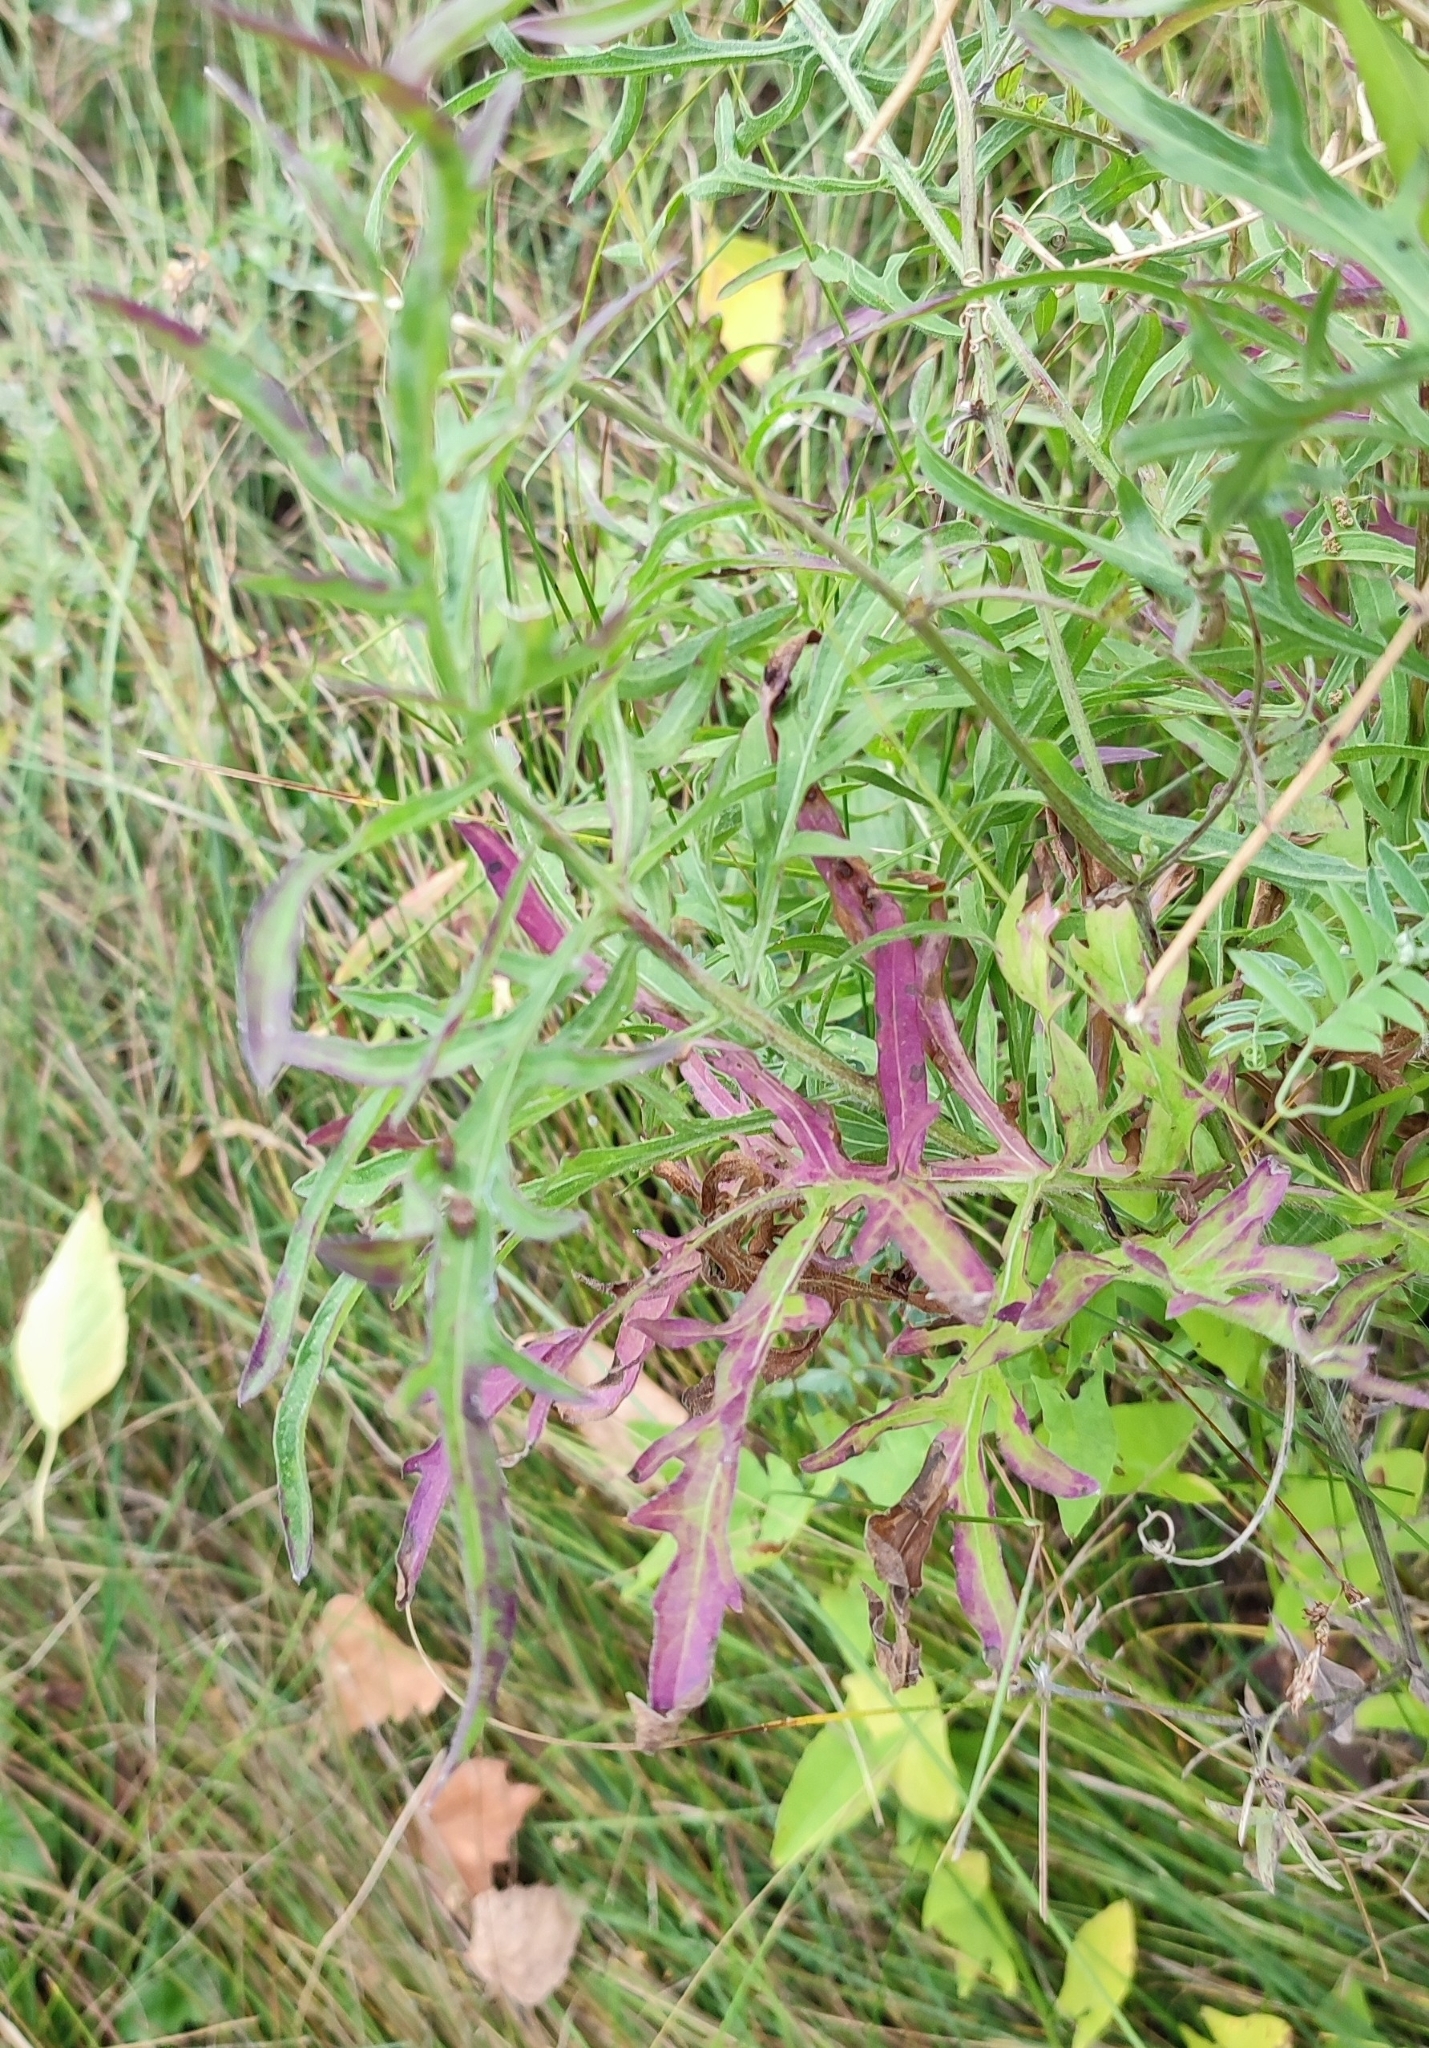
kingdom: Plantae
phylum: Tracheophyta
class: Magnoliopsida
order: Asterales
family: Asteraceae
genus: Centaurea
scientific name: Centaurea scabiosa
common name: Greater knapweed
